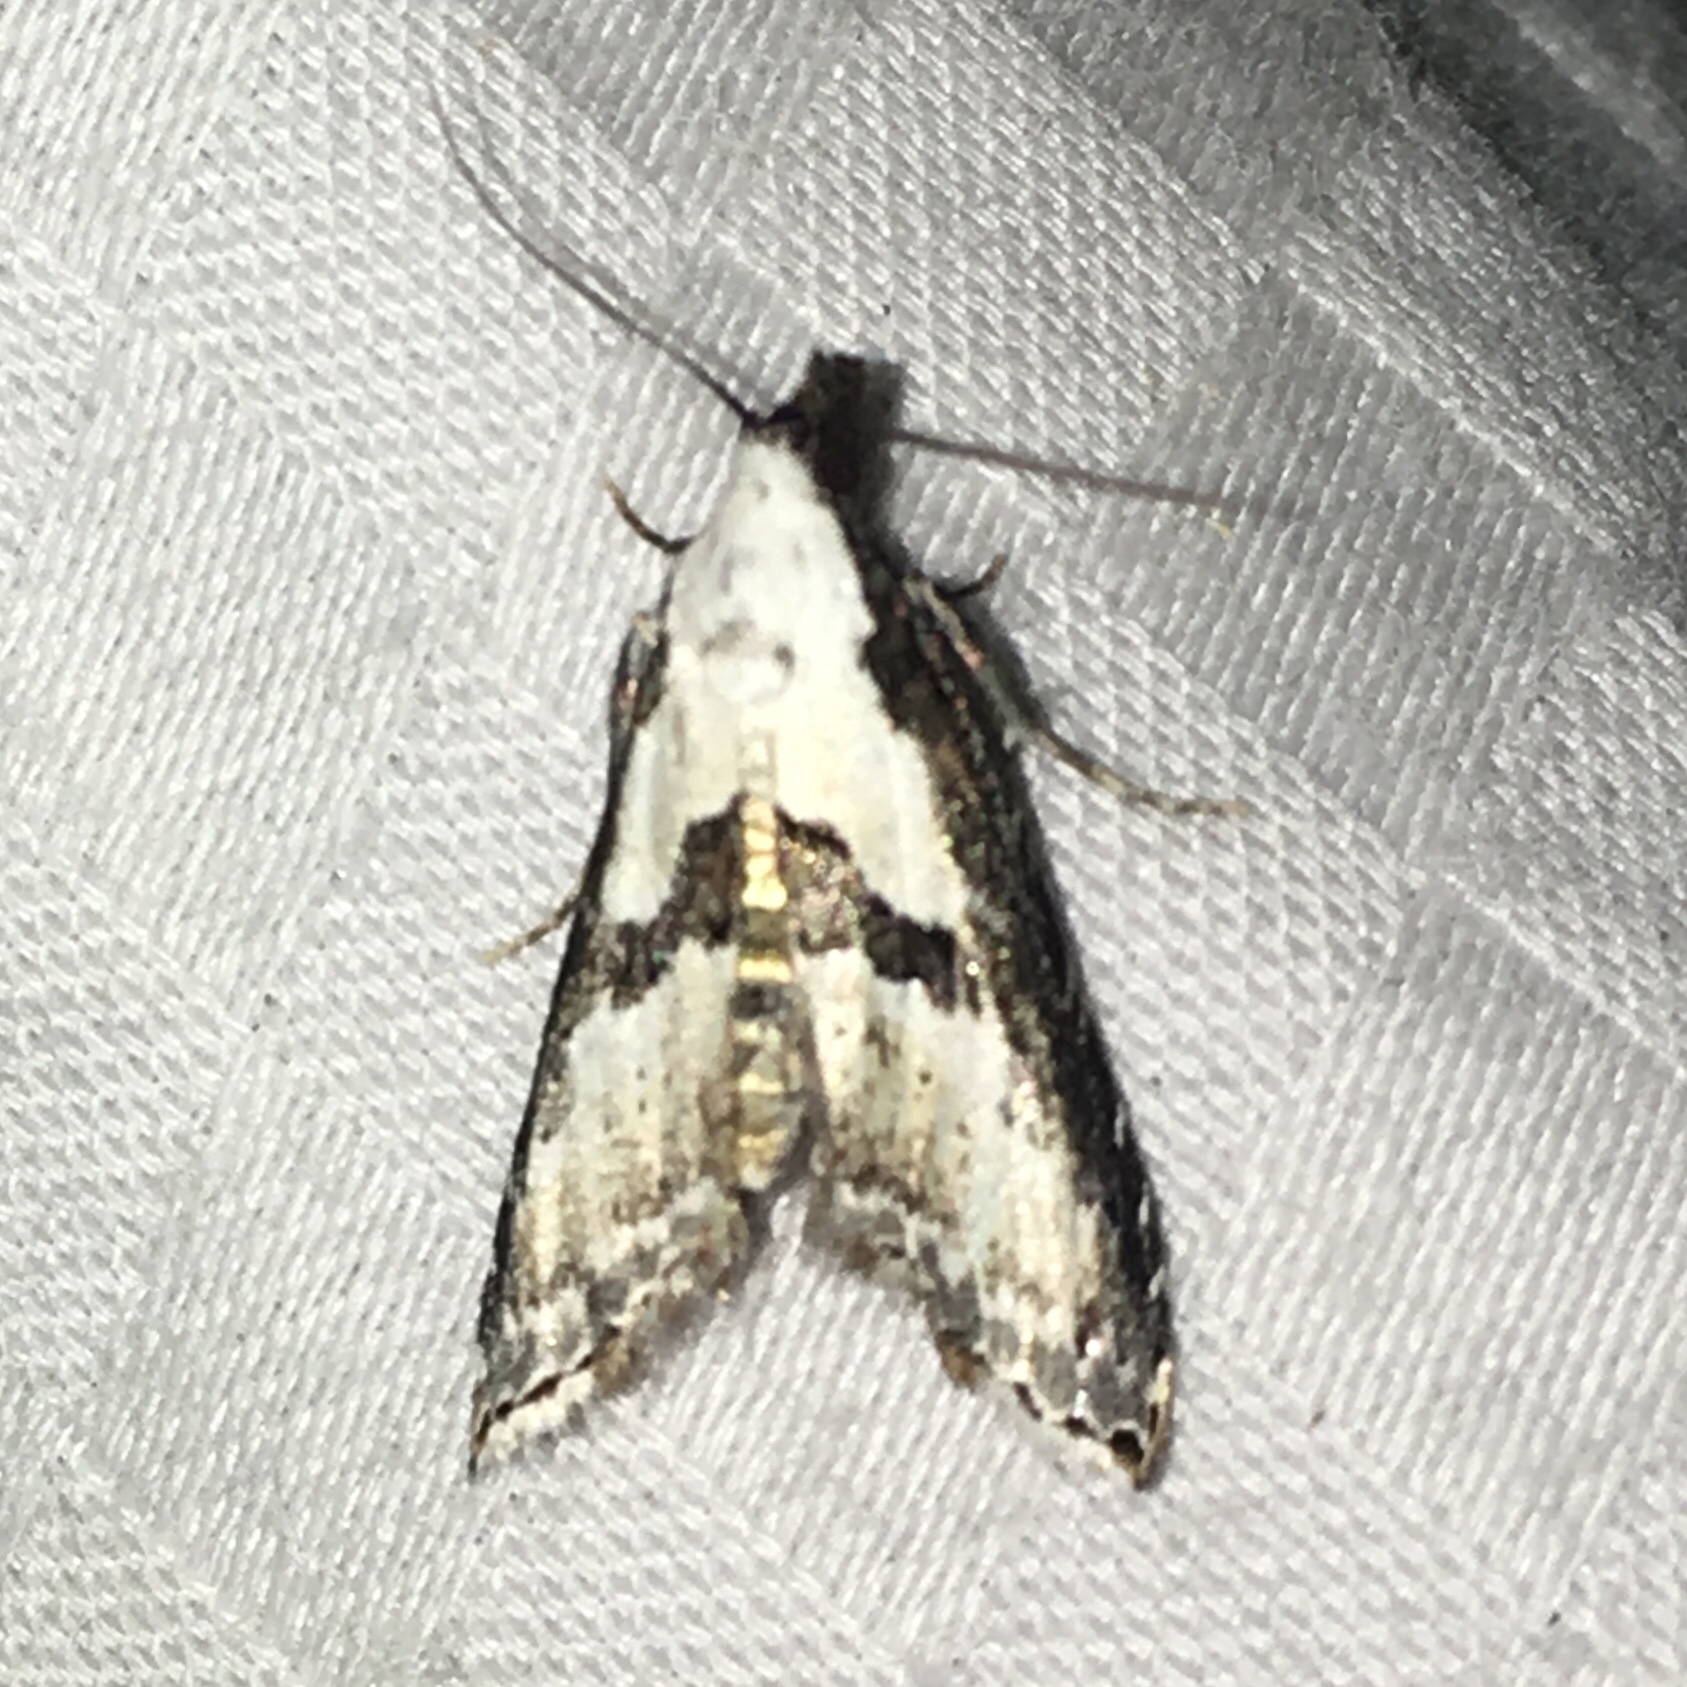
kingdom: Animalia
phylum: Arthropoda
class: Insecta
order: Lepidoptera
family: Noctuidae
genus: Nigetia
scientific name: Nigetia formosalis
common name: Thin-winged owlet
